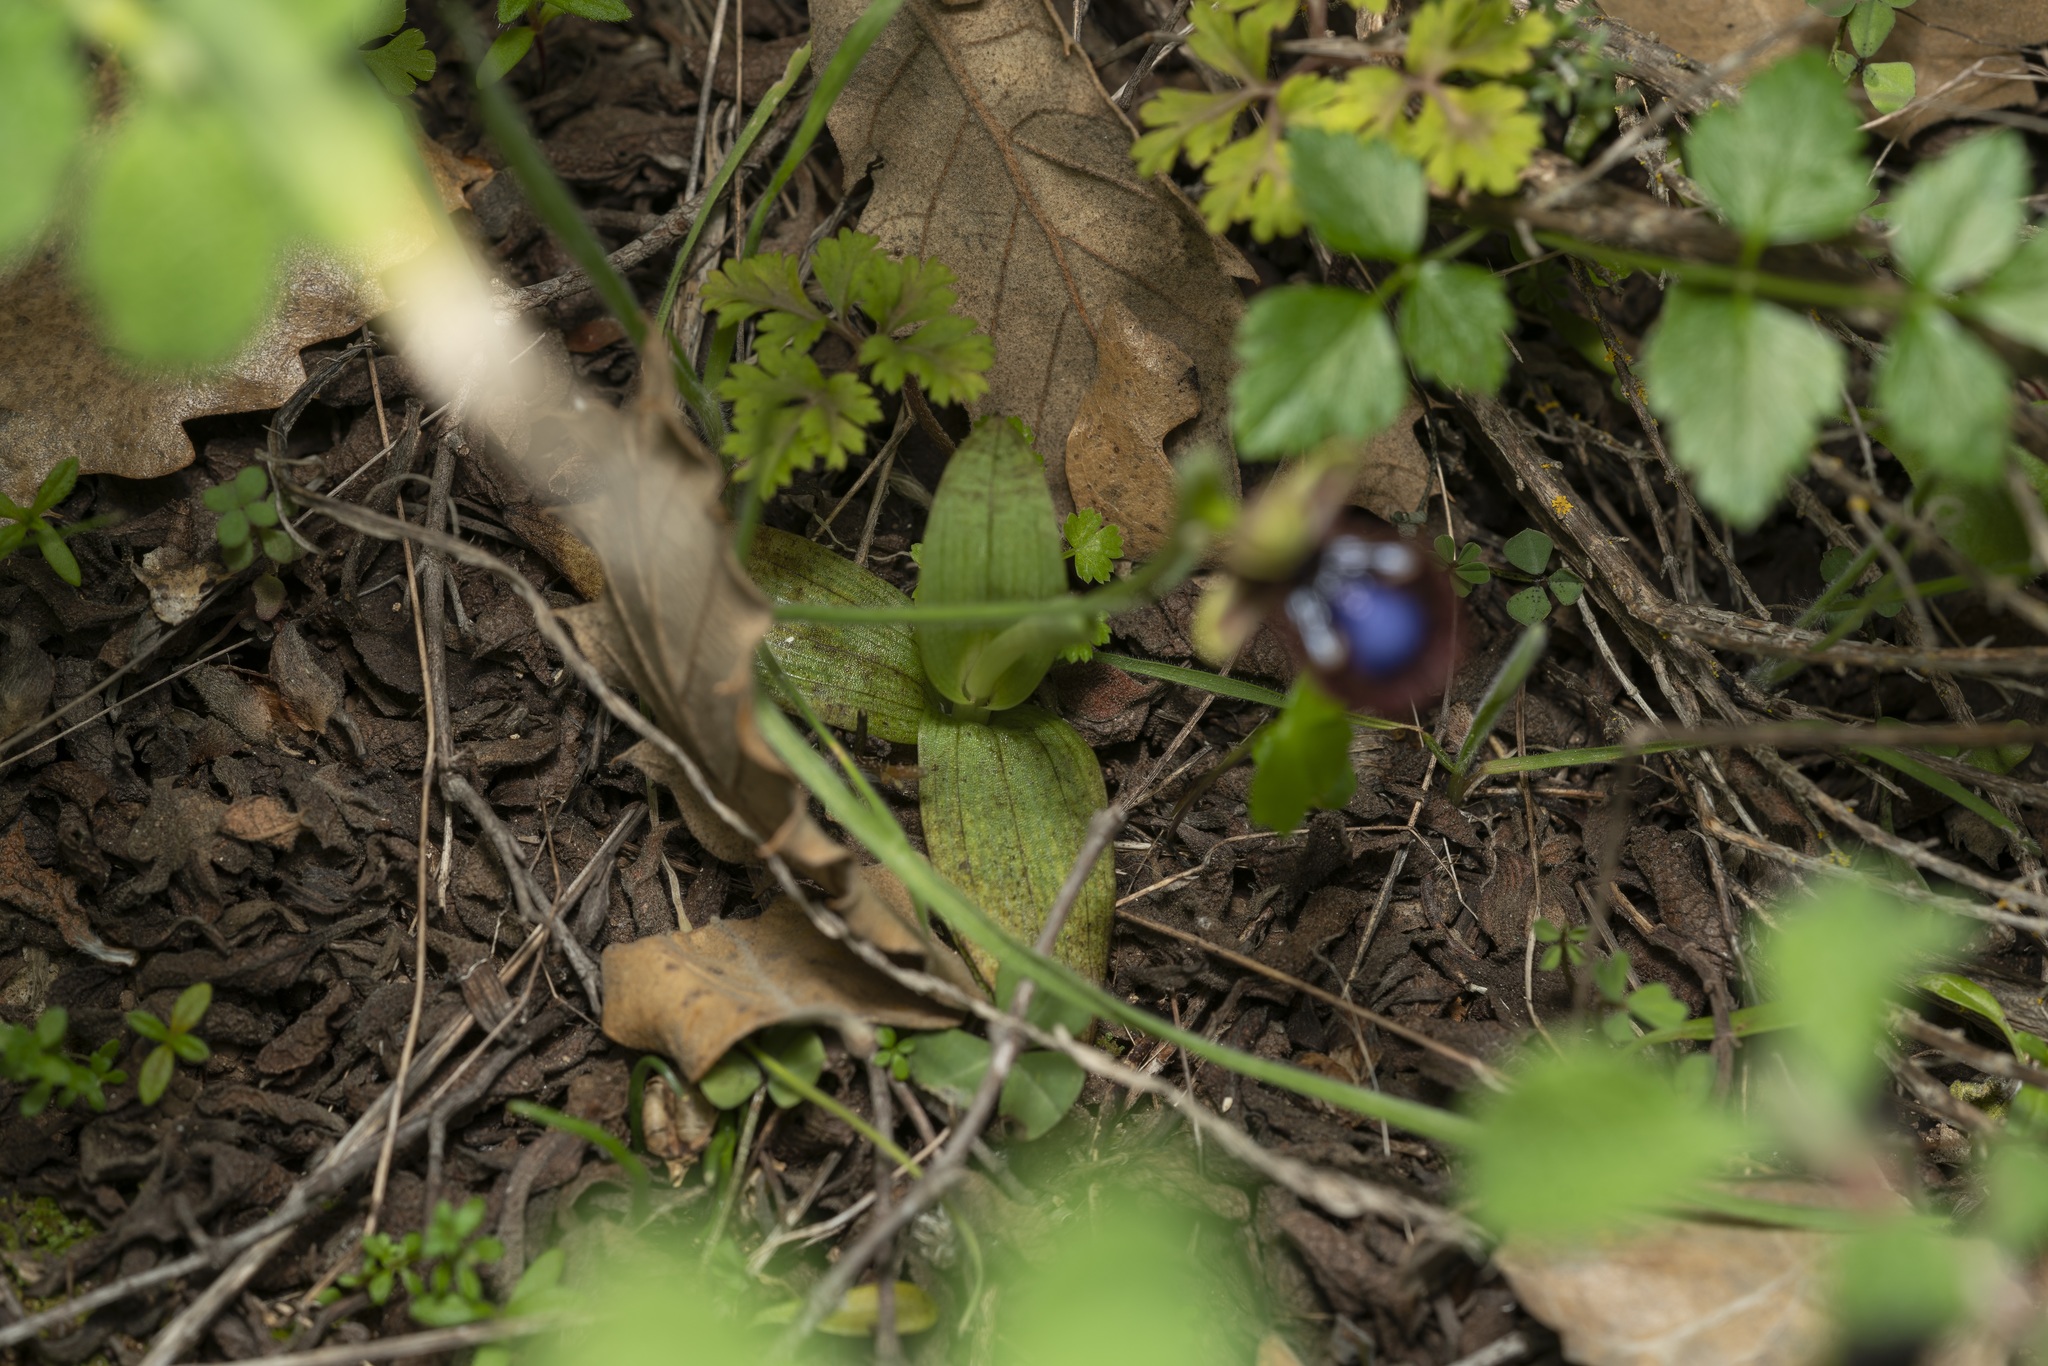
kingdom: Plantae
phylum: Tracheophyta
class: Liliopsida
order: Asparagales
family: Orchidaceae
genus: Ophrys
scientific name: Ophrys speculum
